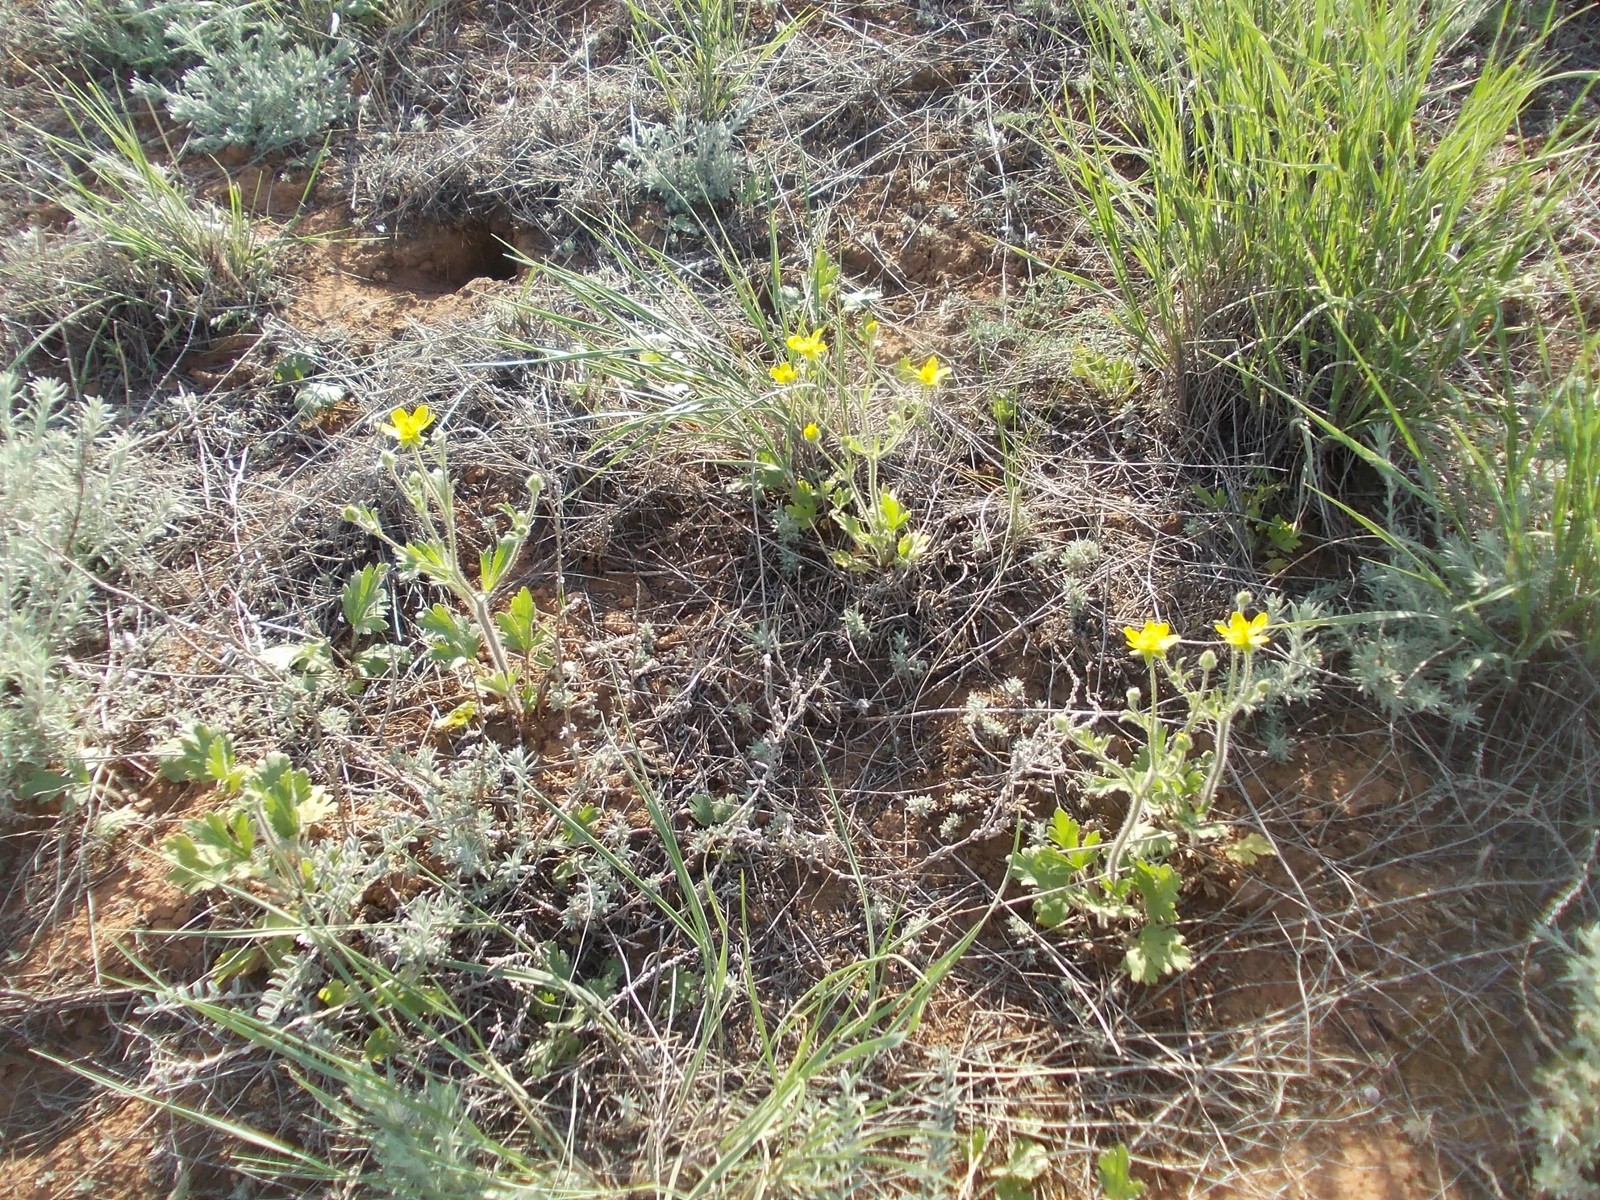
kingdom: Plantae
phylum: Tracheophyta
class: Magnoliopsida
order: Ranunculales
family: Ranunculaceae
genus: Ranunculus
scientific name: Ranunculus oxyspermus
